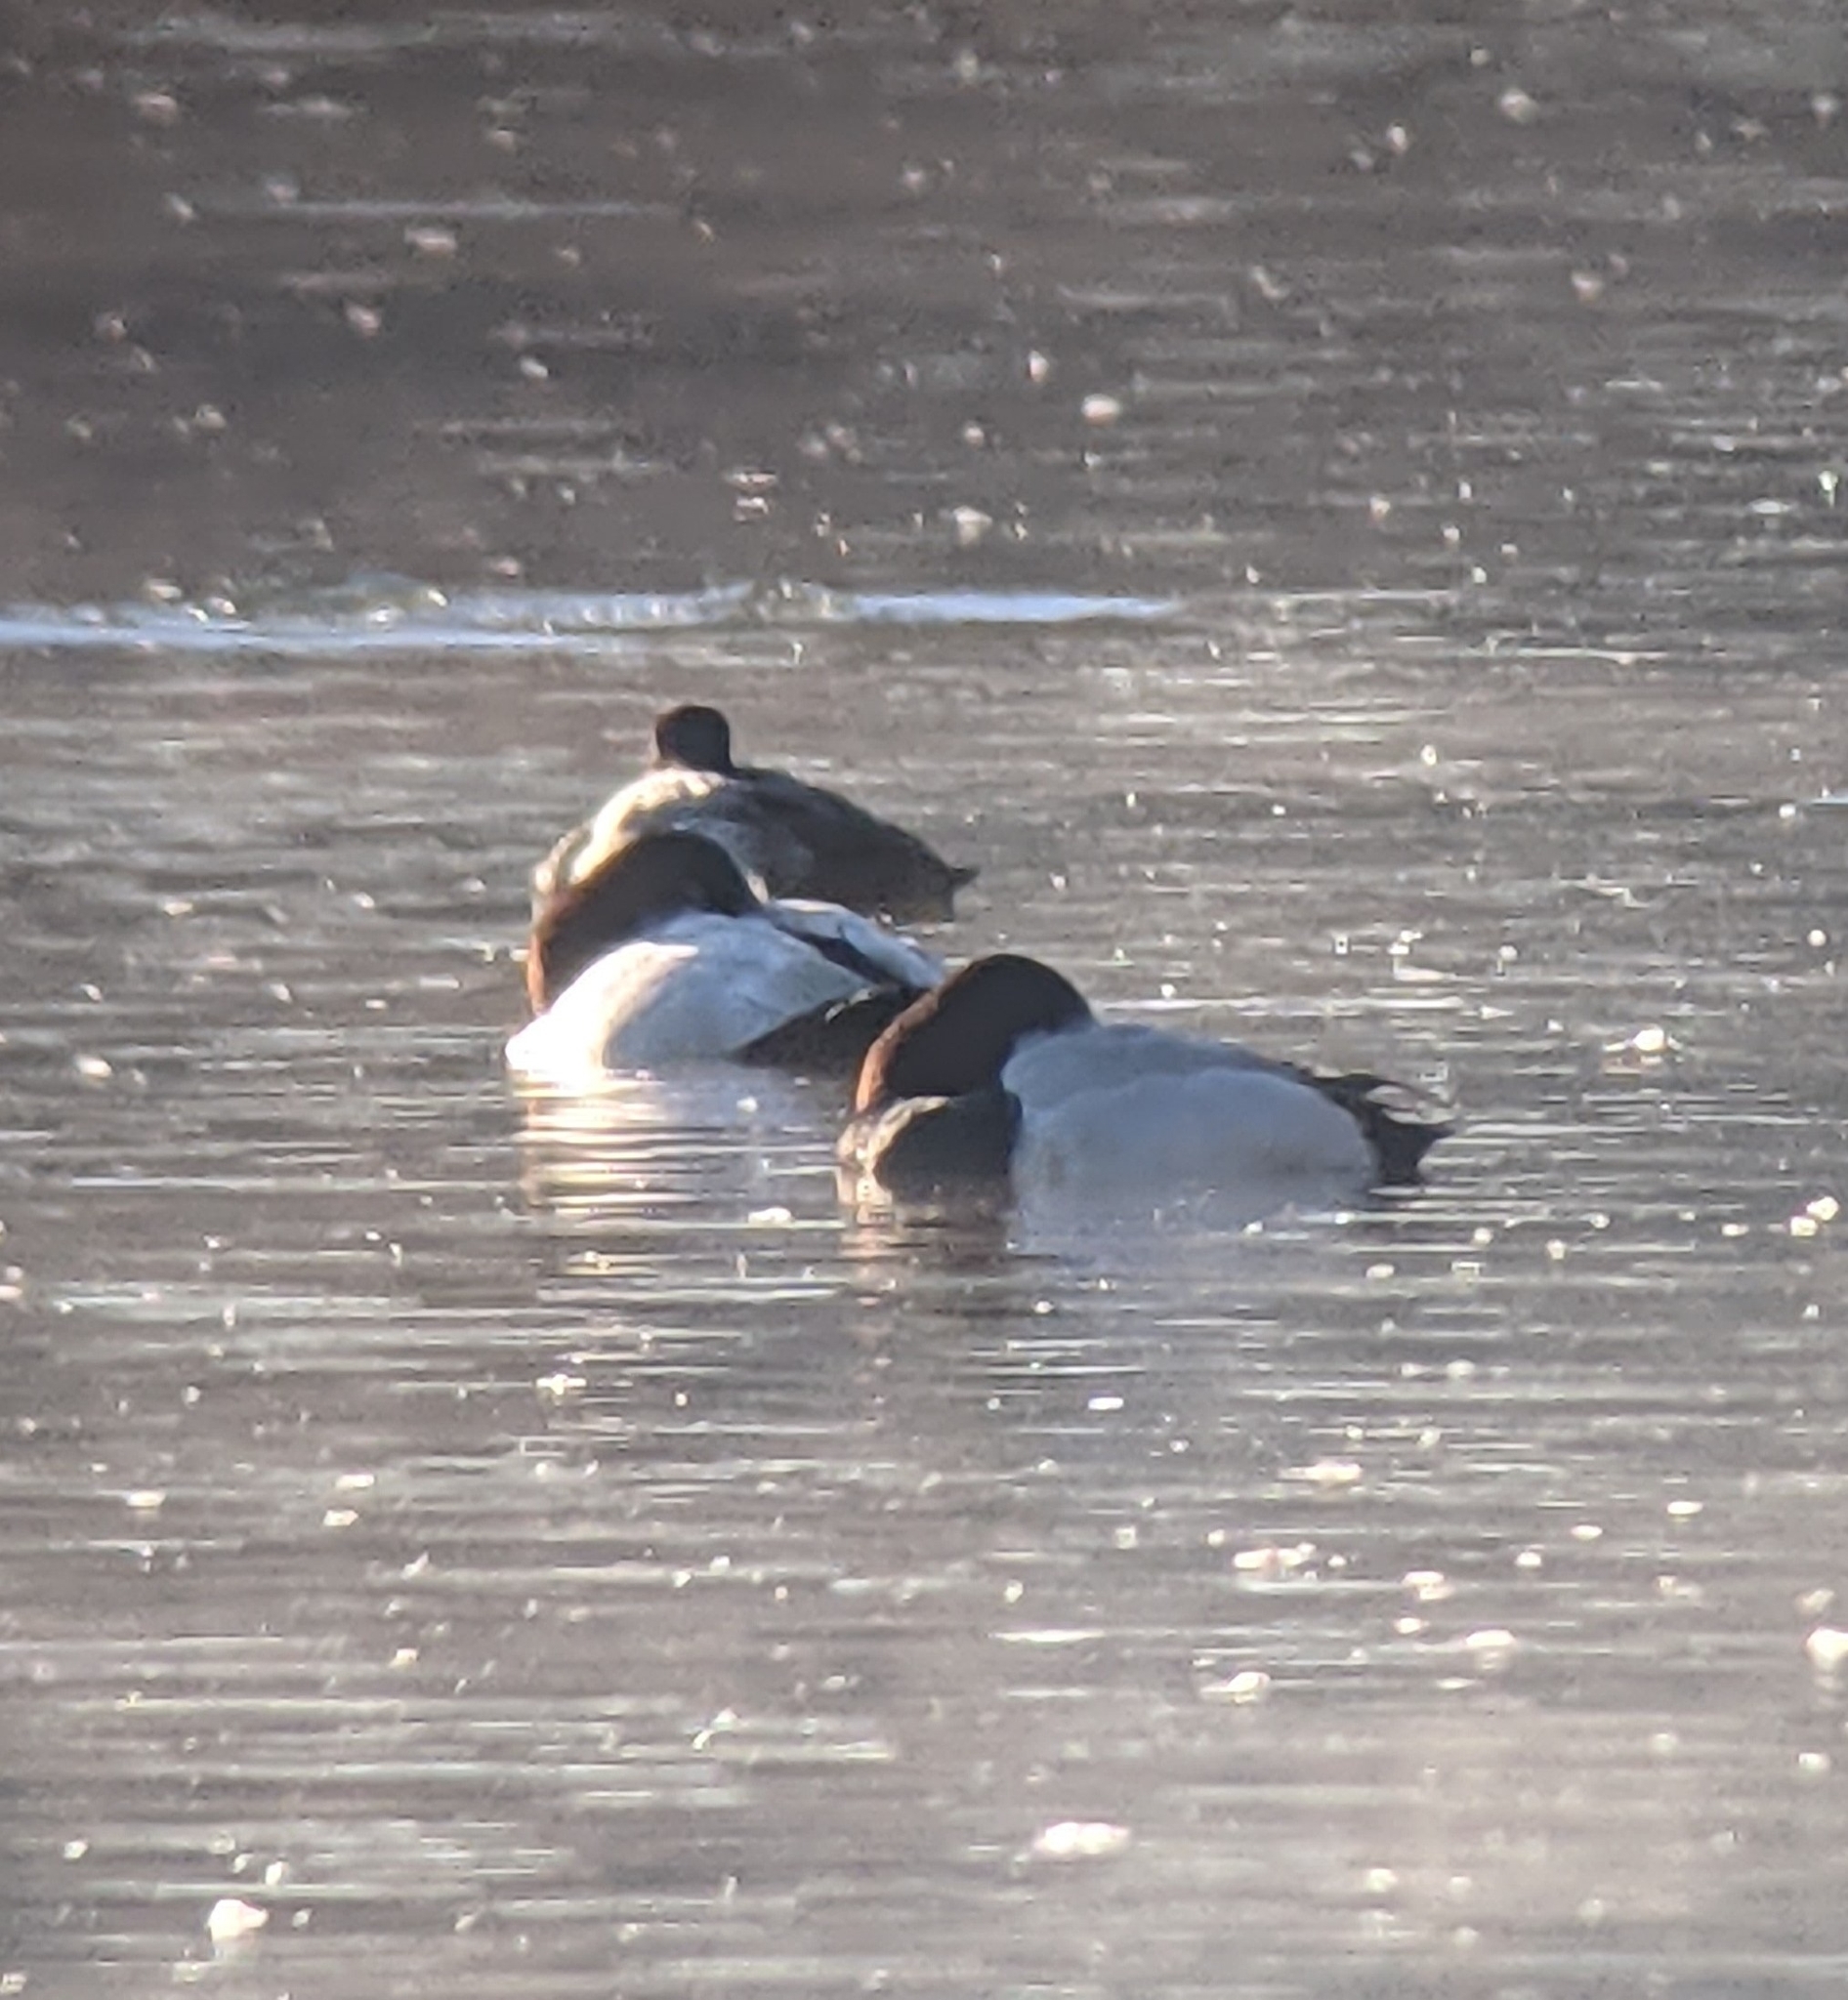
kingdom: Animalia
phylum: Chordata
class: Aves
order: Anseriformes
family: Anatidae
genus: Aythya
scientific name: Aythya valisineria
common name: Canvasback
